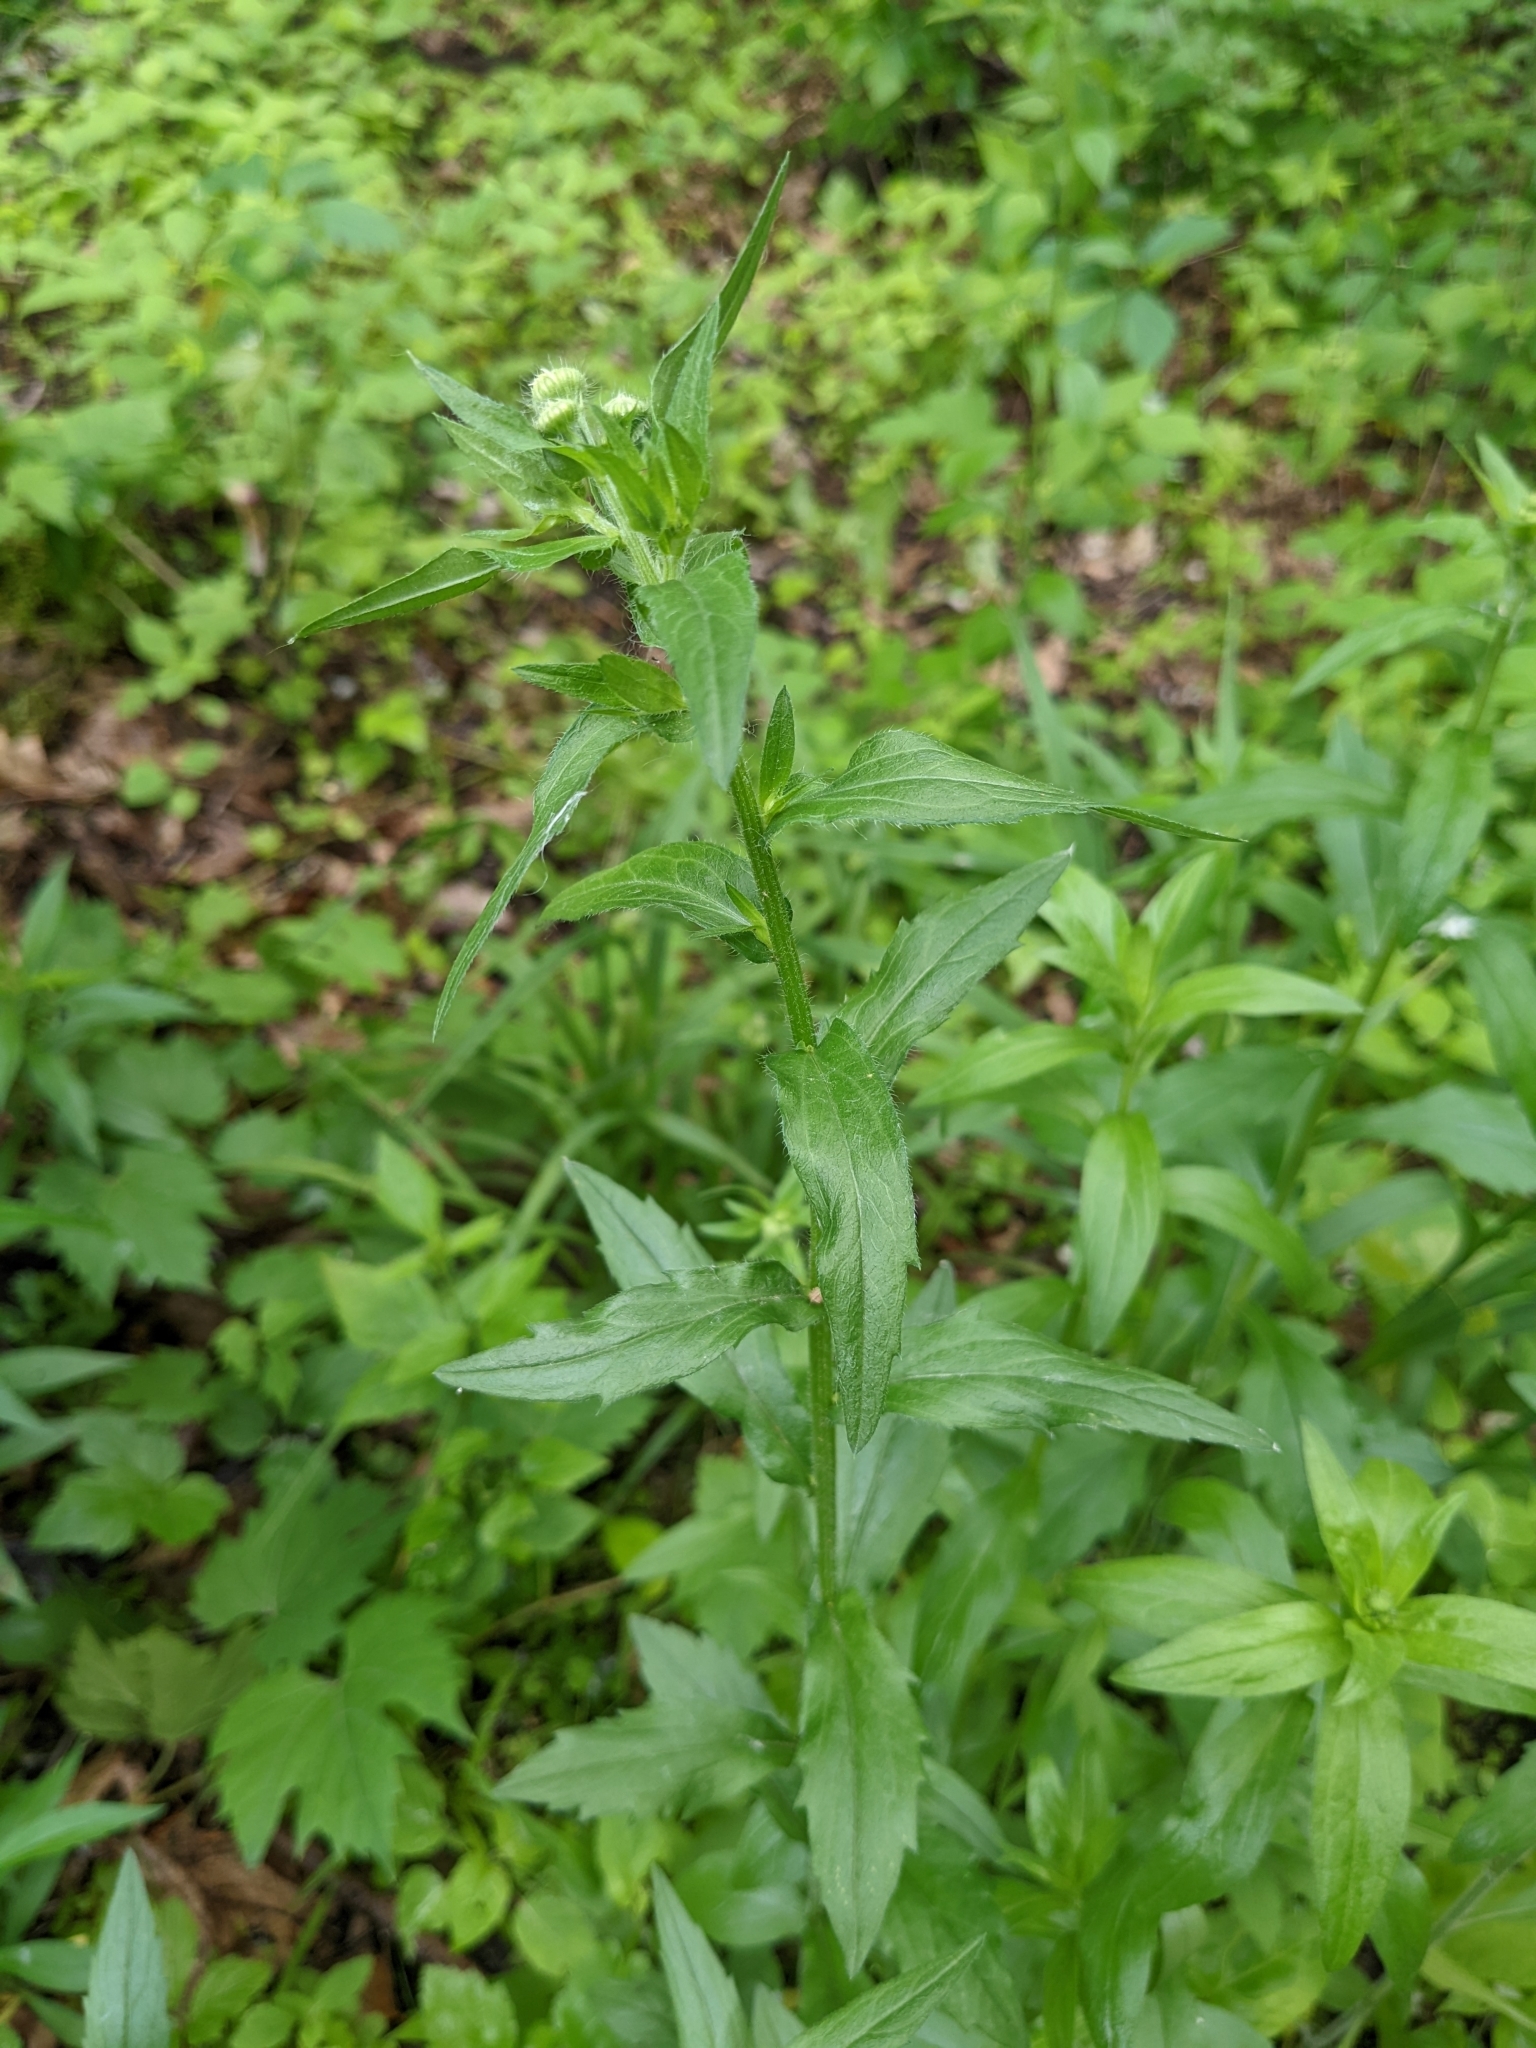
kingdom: Plantae
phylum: Tracheophyta
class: Magnoliopsida
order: Asterales
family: Asteraceae
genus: Erigeron
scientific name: Erigeron annuus
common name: Tall fleabane
